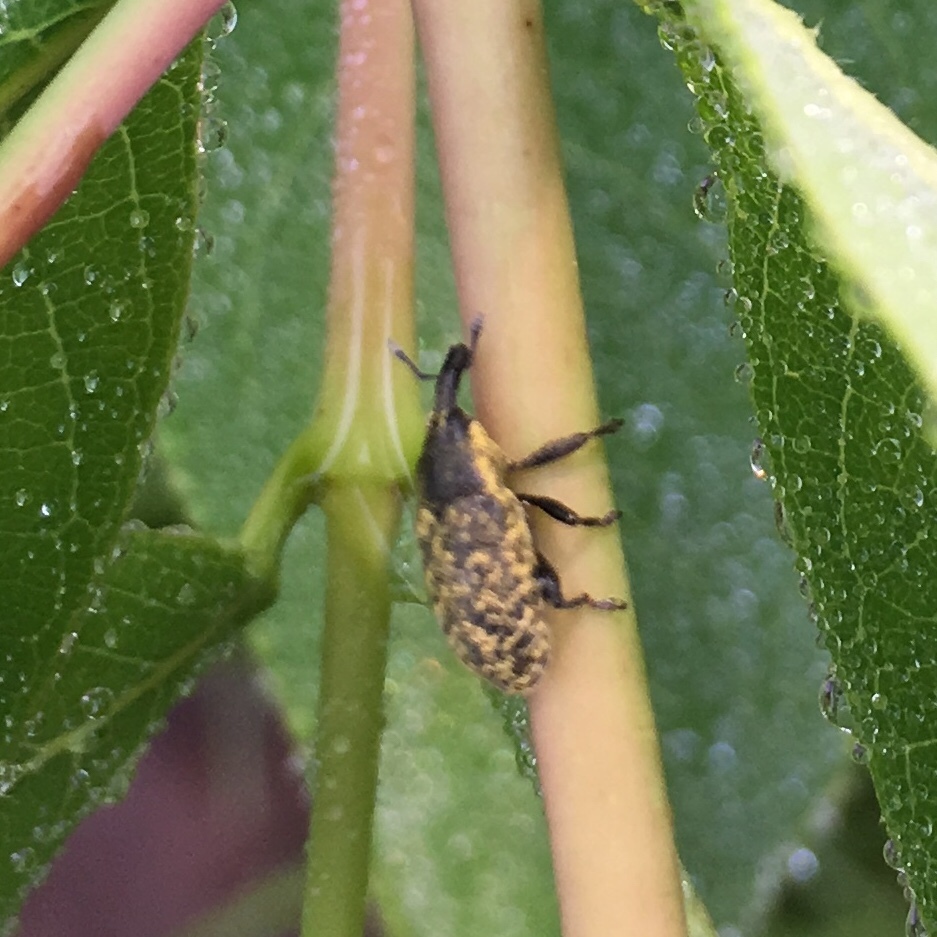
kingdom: Animalia
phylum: Arthropoda
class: Insecta
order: Coleoptera
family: Curculionidae
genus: Larinus
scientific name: Larinus carlinae
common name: Weevil
